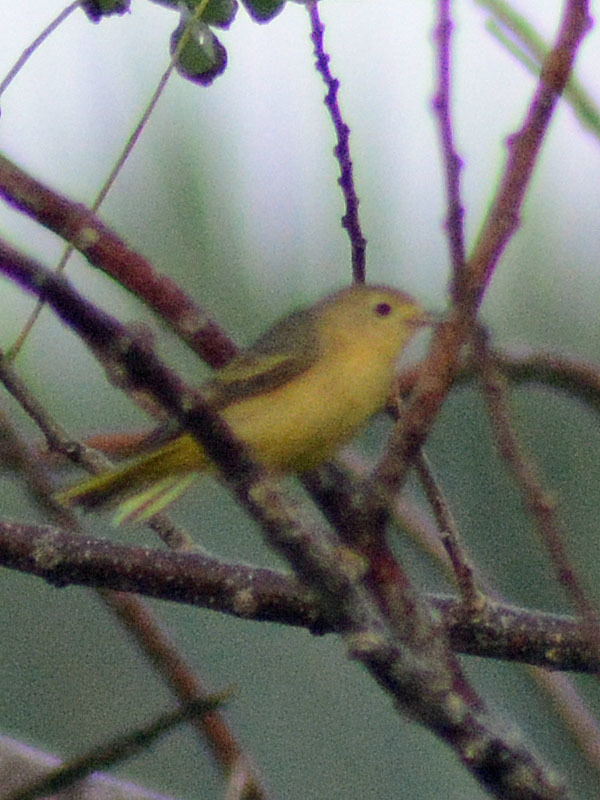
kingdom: Animalia
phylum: Chordata
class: Aves
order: Passeriformes
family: Parulidae
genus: Setophaga
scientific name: Setophaga petechia
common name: Yellow warbler
